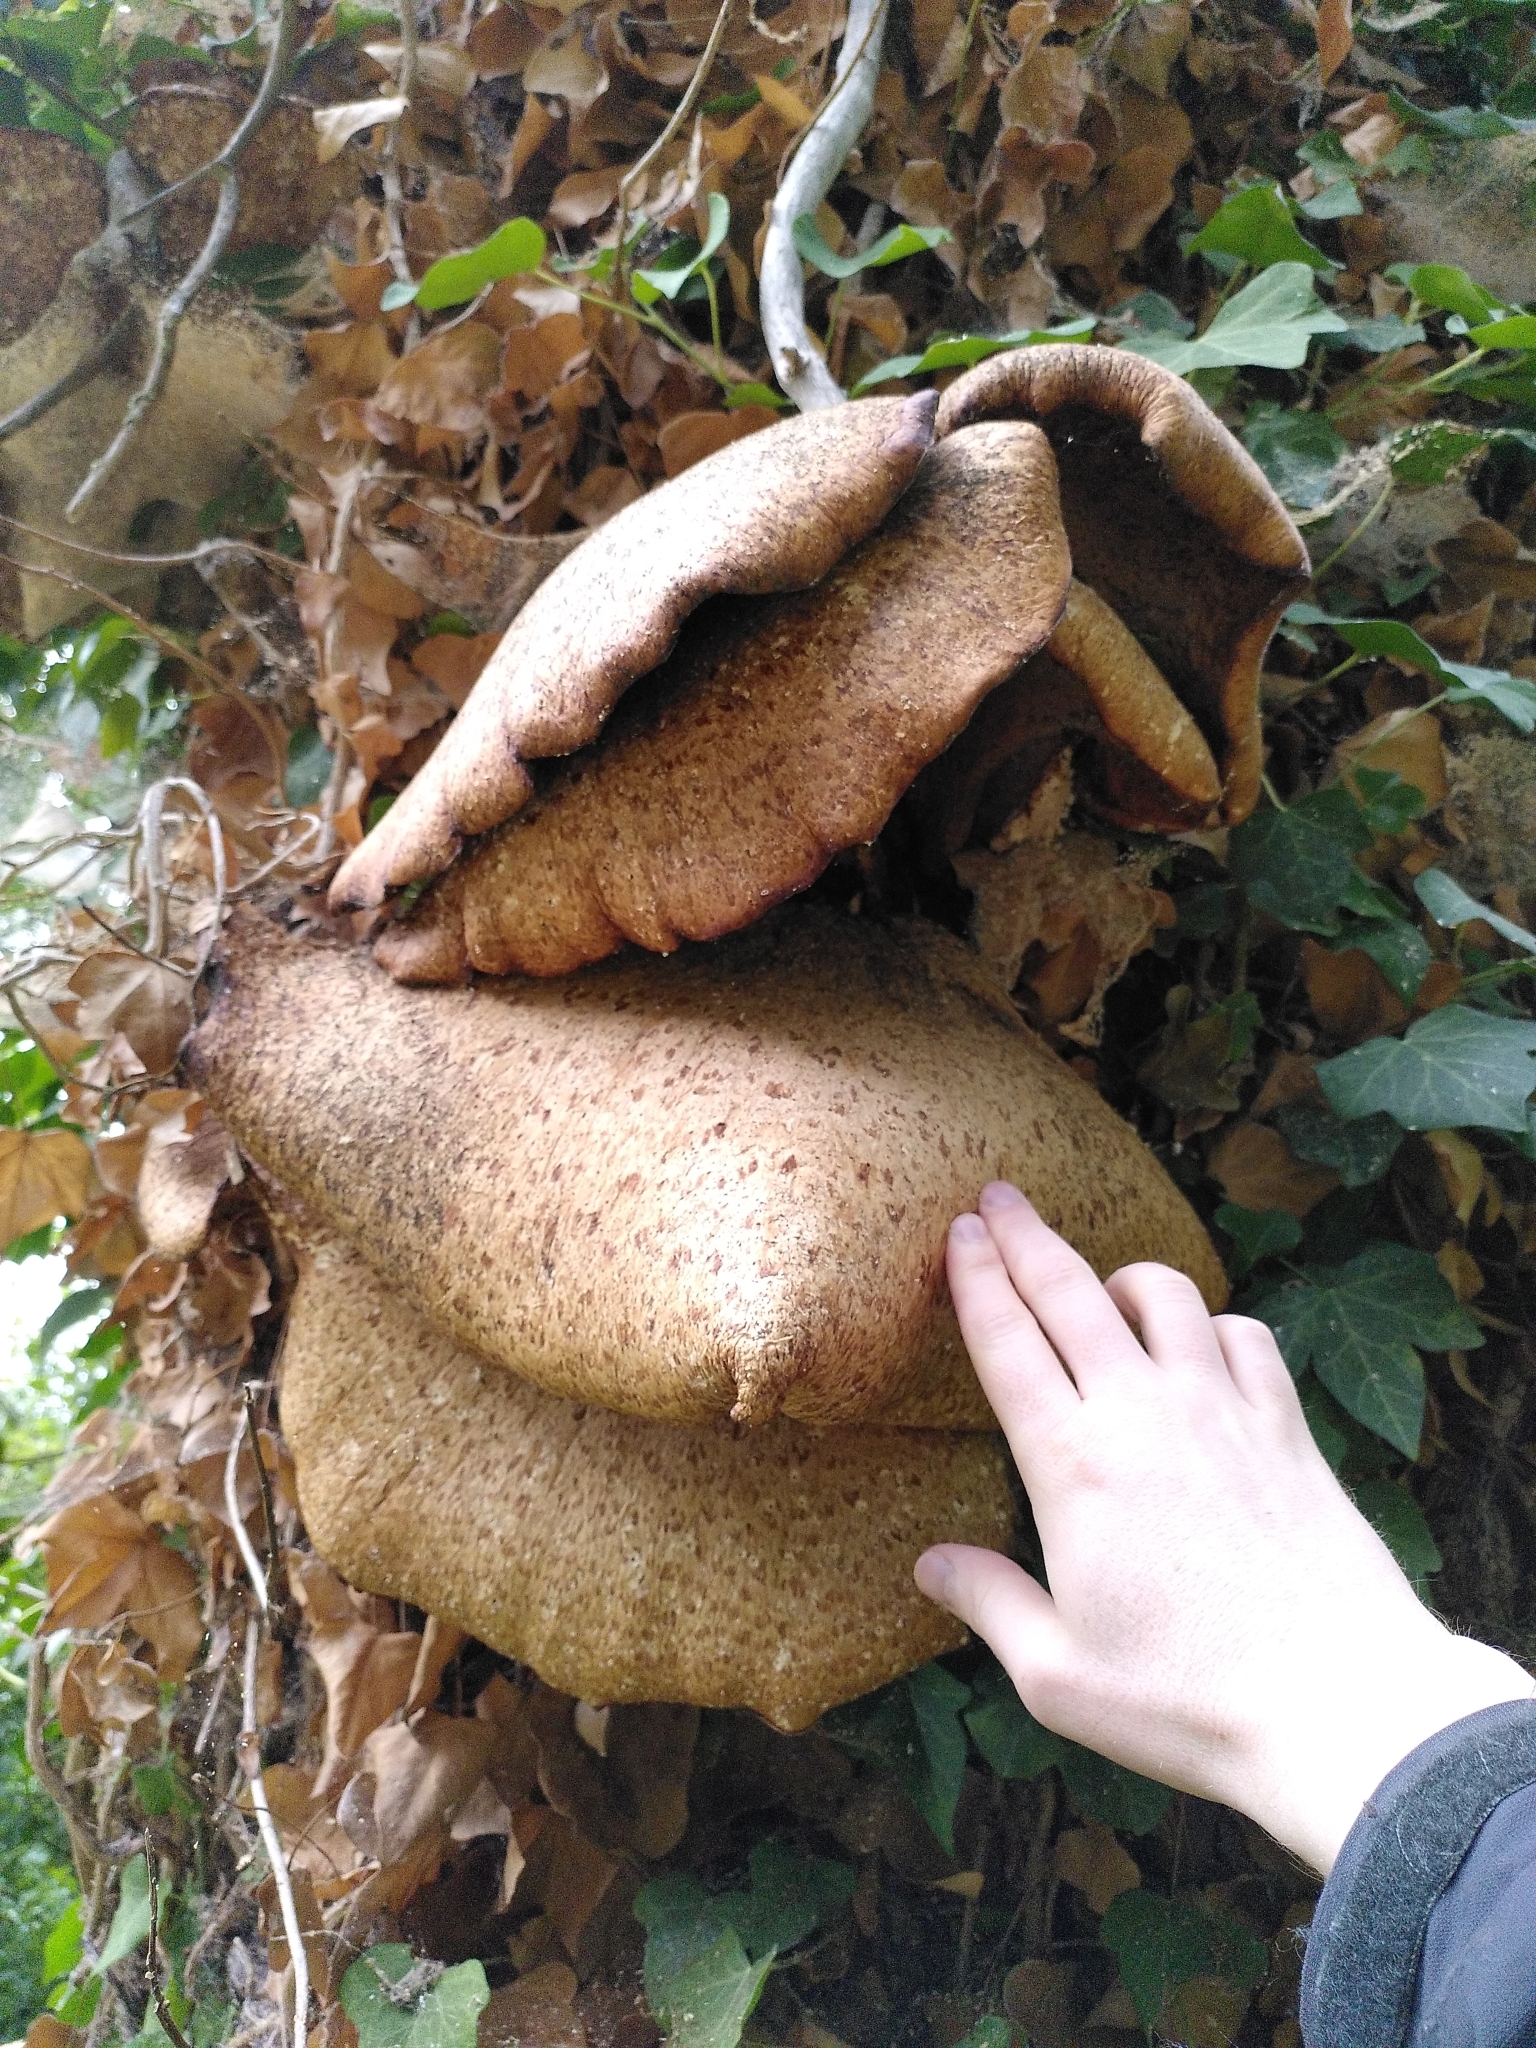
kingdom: Fungi
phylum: Basidiomycota
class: Agaricomycetes
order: Polyporales
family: Polyporaceae
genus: Cerioporus
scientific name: Cerioporus squamosus
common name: Dryad's saddle
